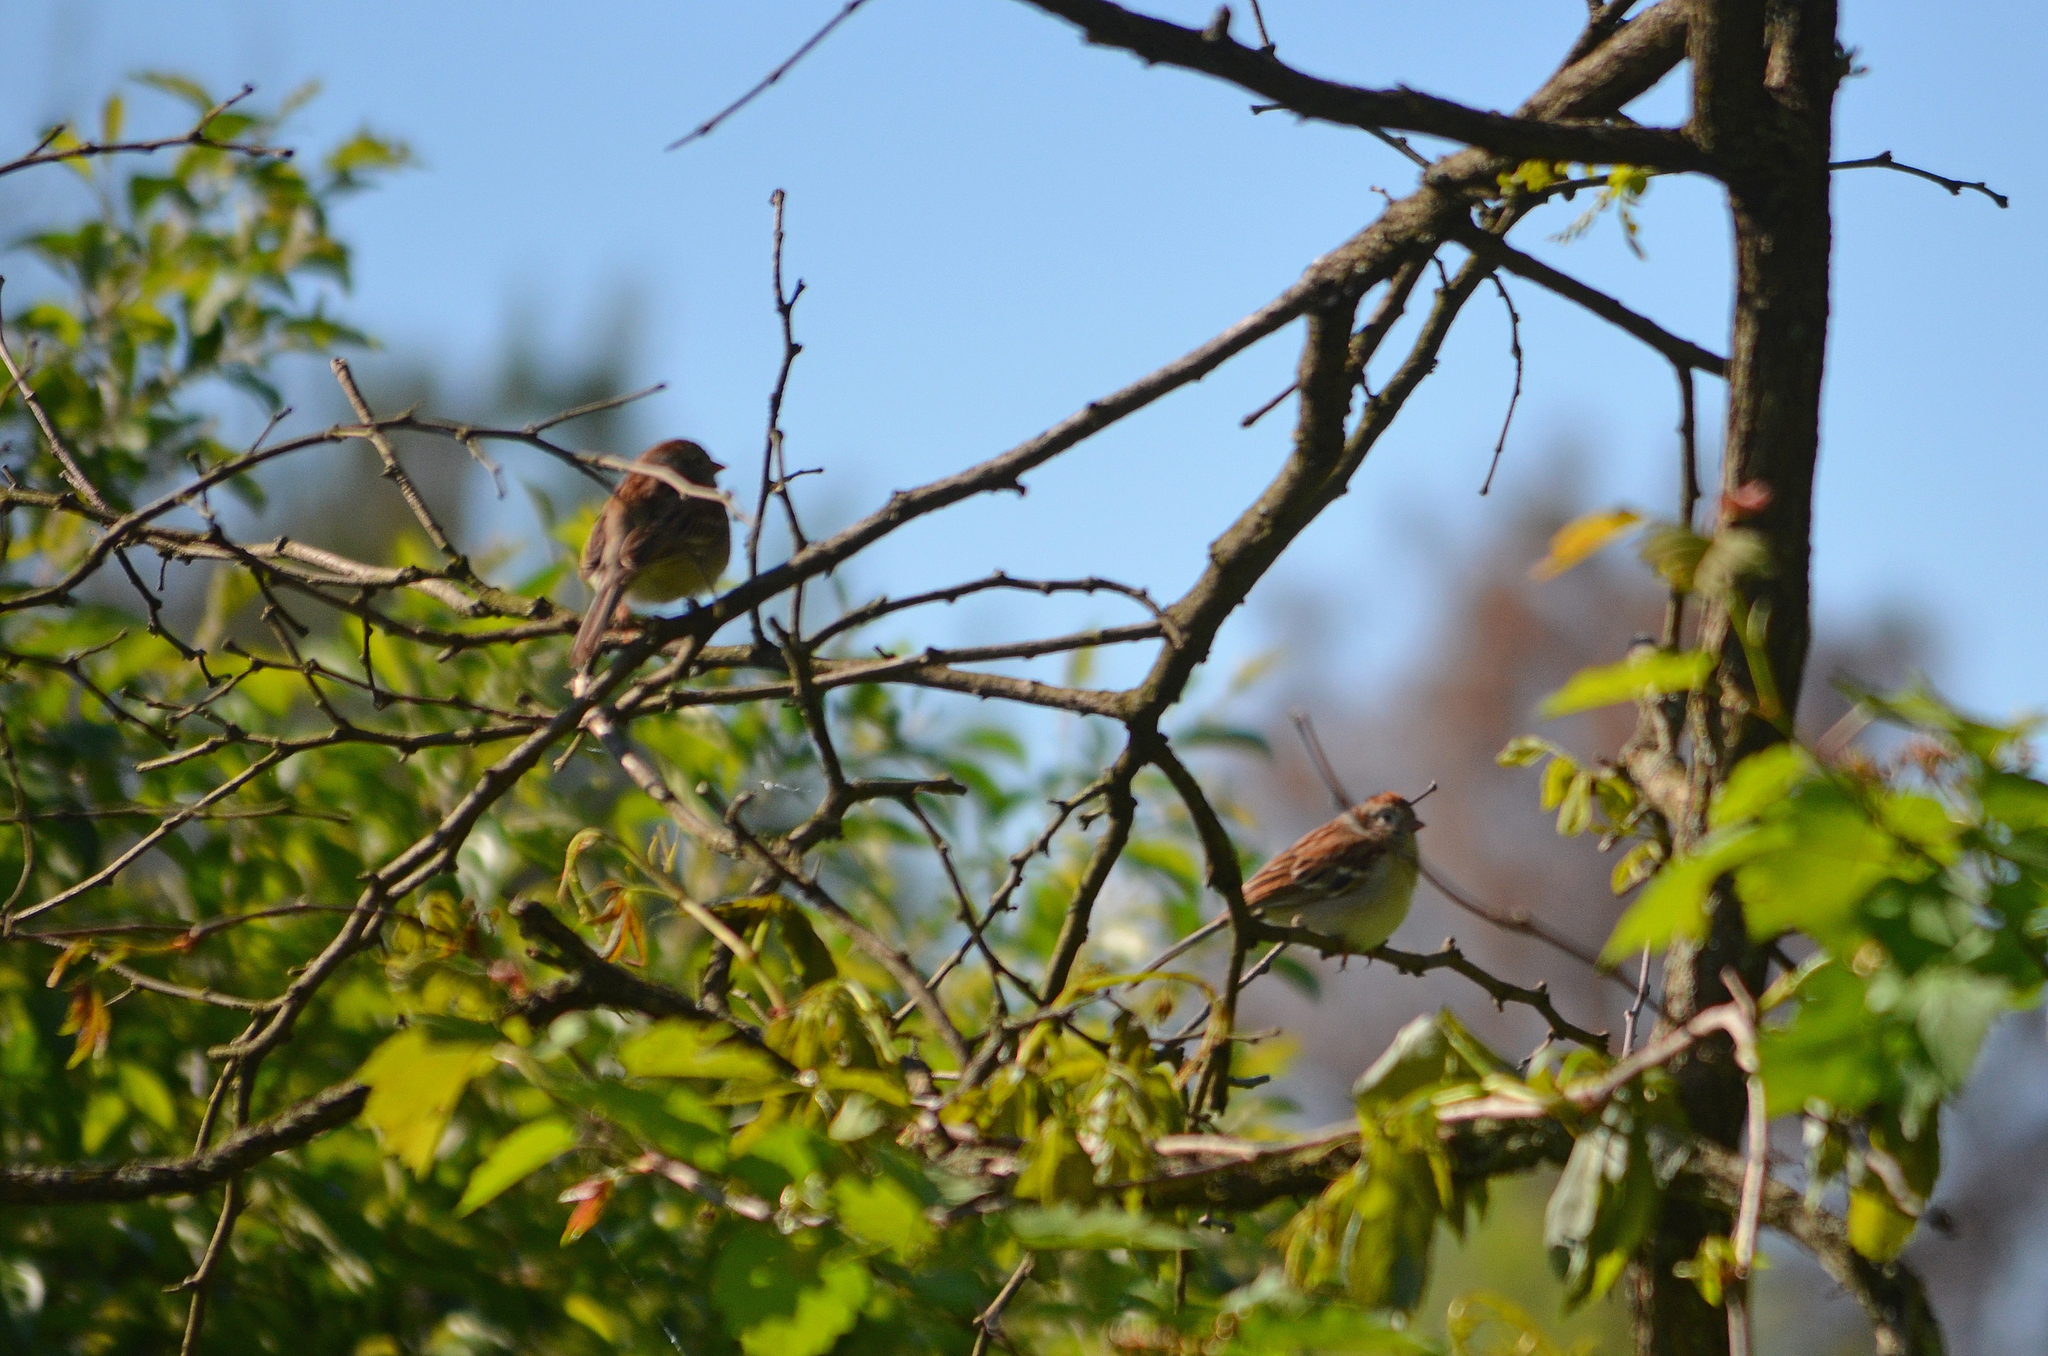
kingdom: Animalia
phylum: Chordata
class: Aves
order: Passeriformes
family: Passerellidae
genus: Spizella
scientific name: Spizella pusilla
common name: Field sparrow
